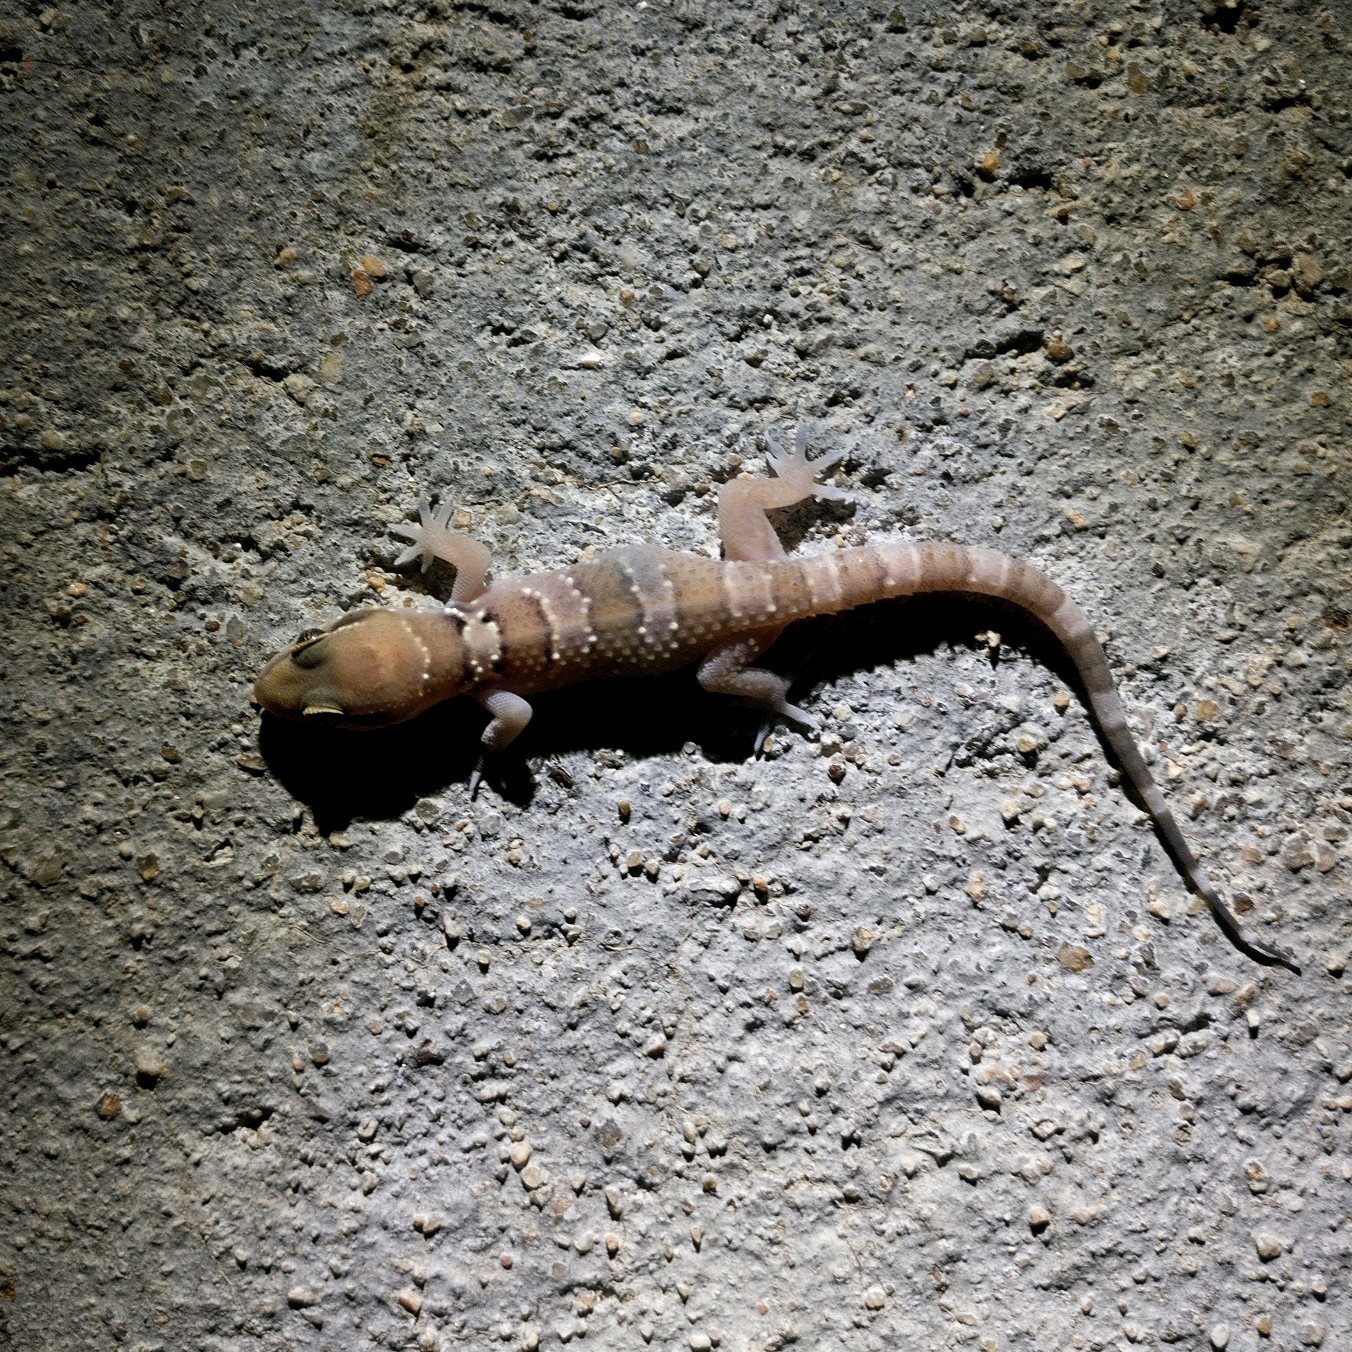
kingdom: Animalia
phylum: Chordata
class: Squamata
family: Gekkonidae
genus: Hemidactylus
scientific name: Hemidactylus whitakeri
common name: Whitaker’s termite hill gecko
